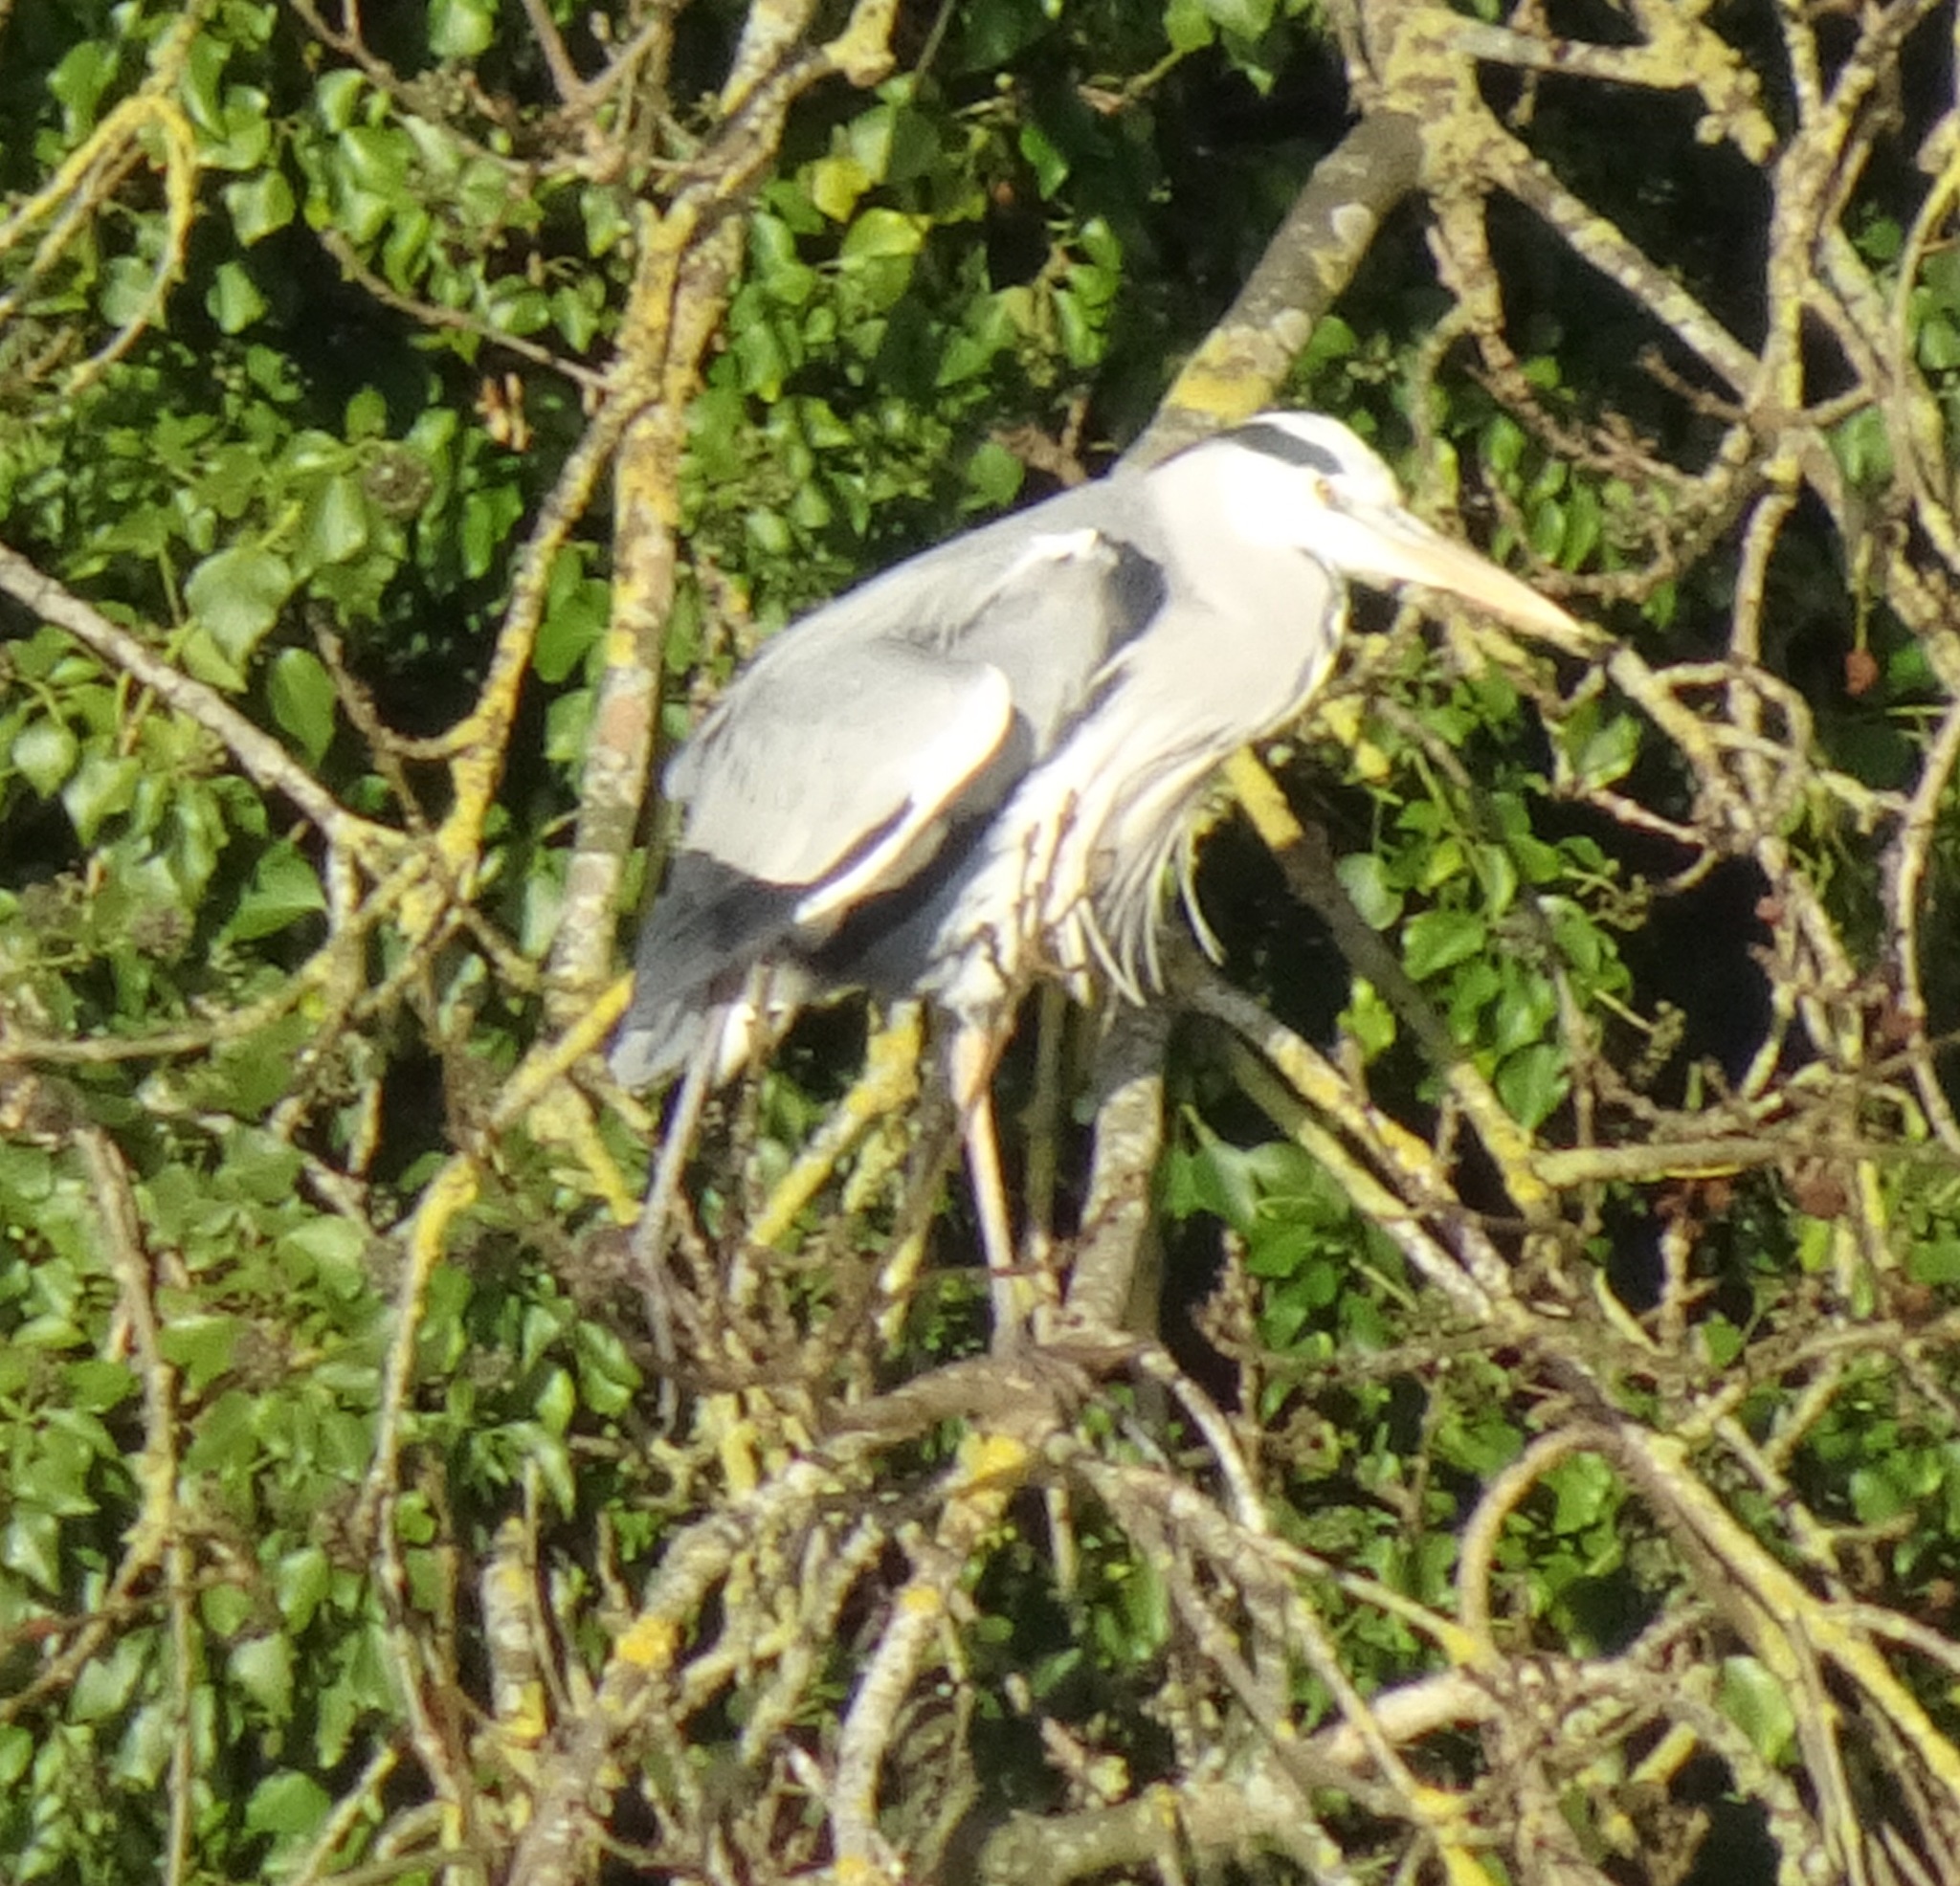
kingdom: Animalia
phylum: Chordata
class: Aves
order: Pelecaniformes
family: Ardeidae
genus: Ardea
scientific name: Ardea cinerea
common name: Grey heron
